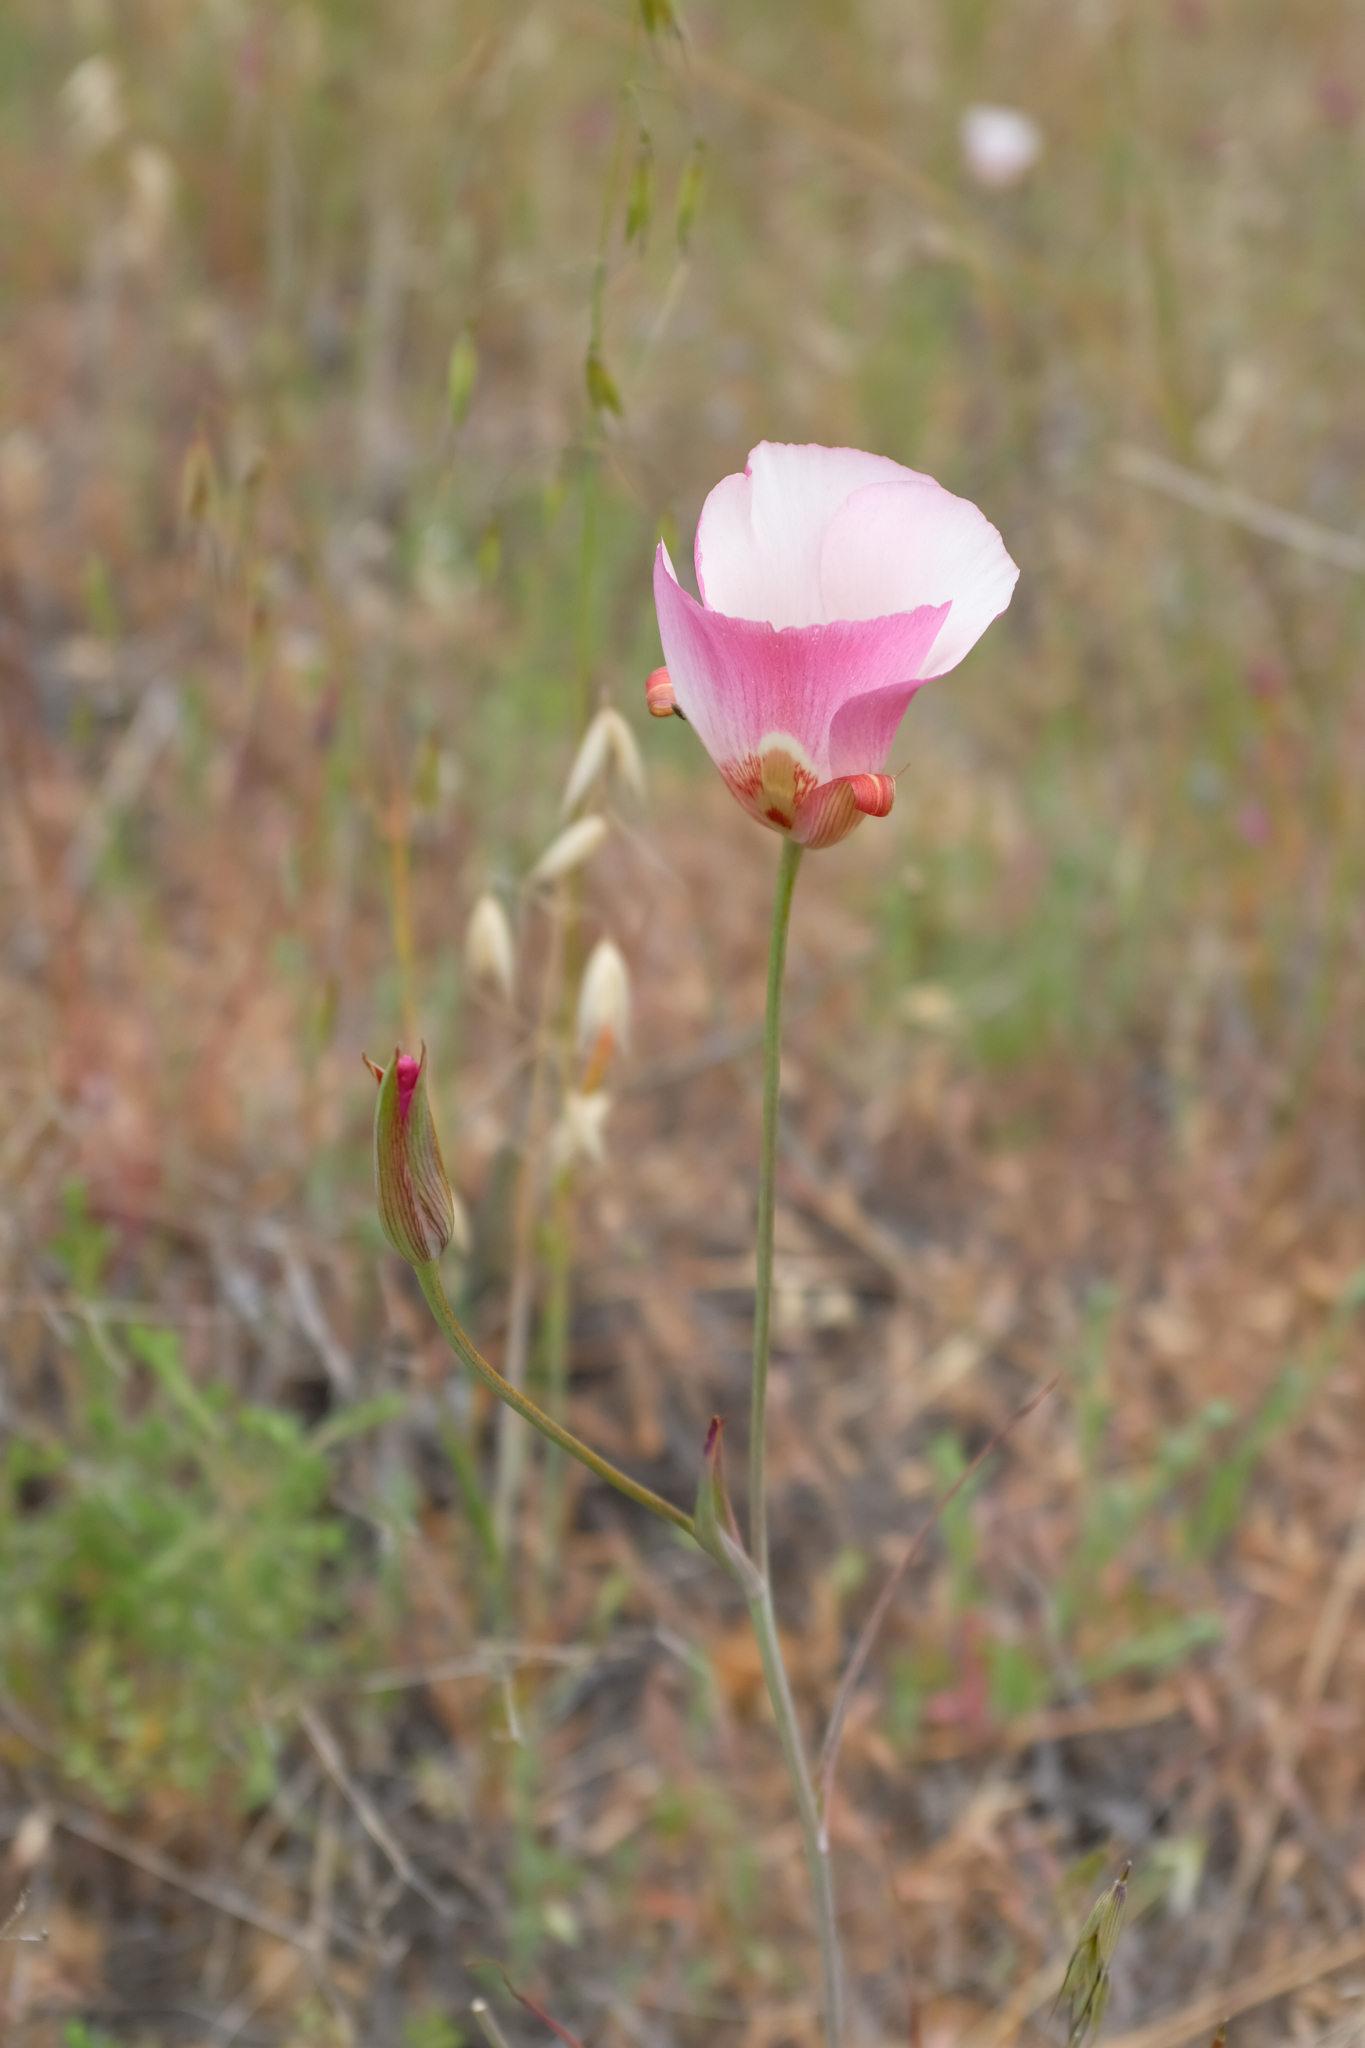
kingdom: Plantae
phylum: Tracheophyta
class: Liliopsida
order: Liliales
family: Liliaceae
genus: Calochortus
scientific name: Calochortus simulans
